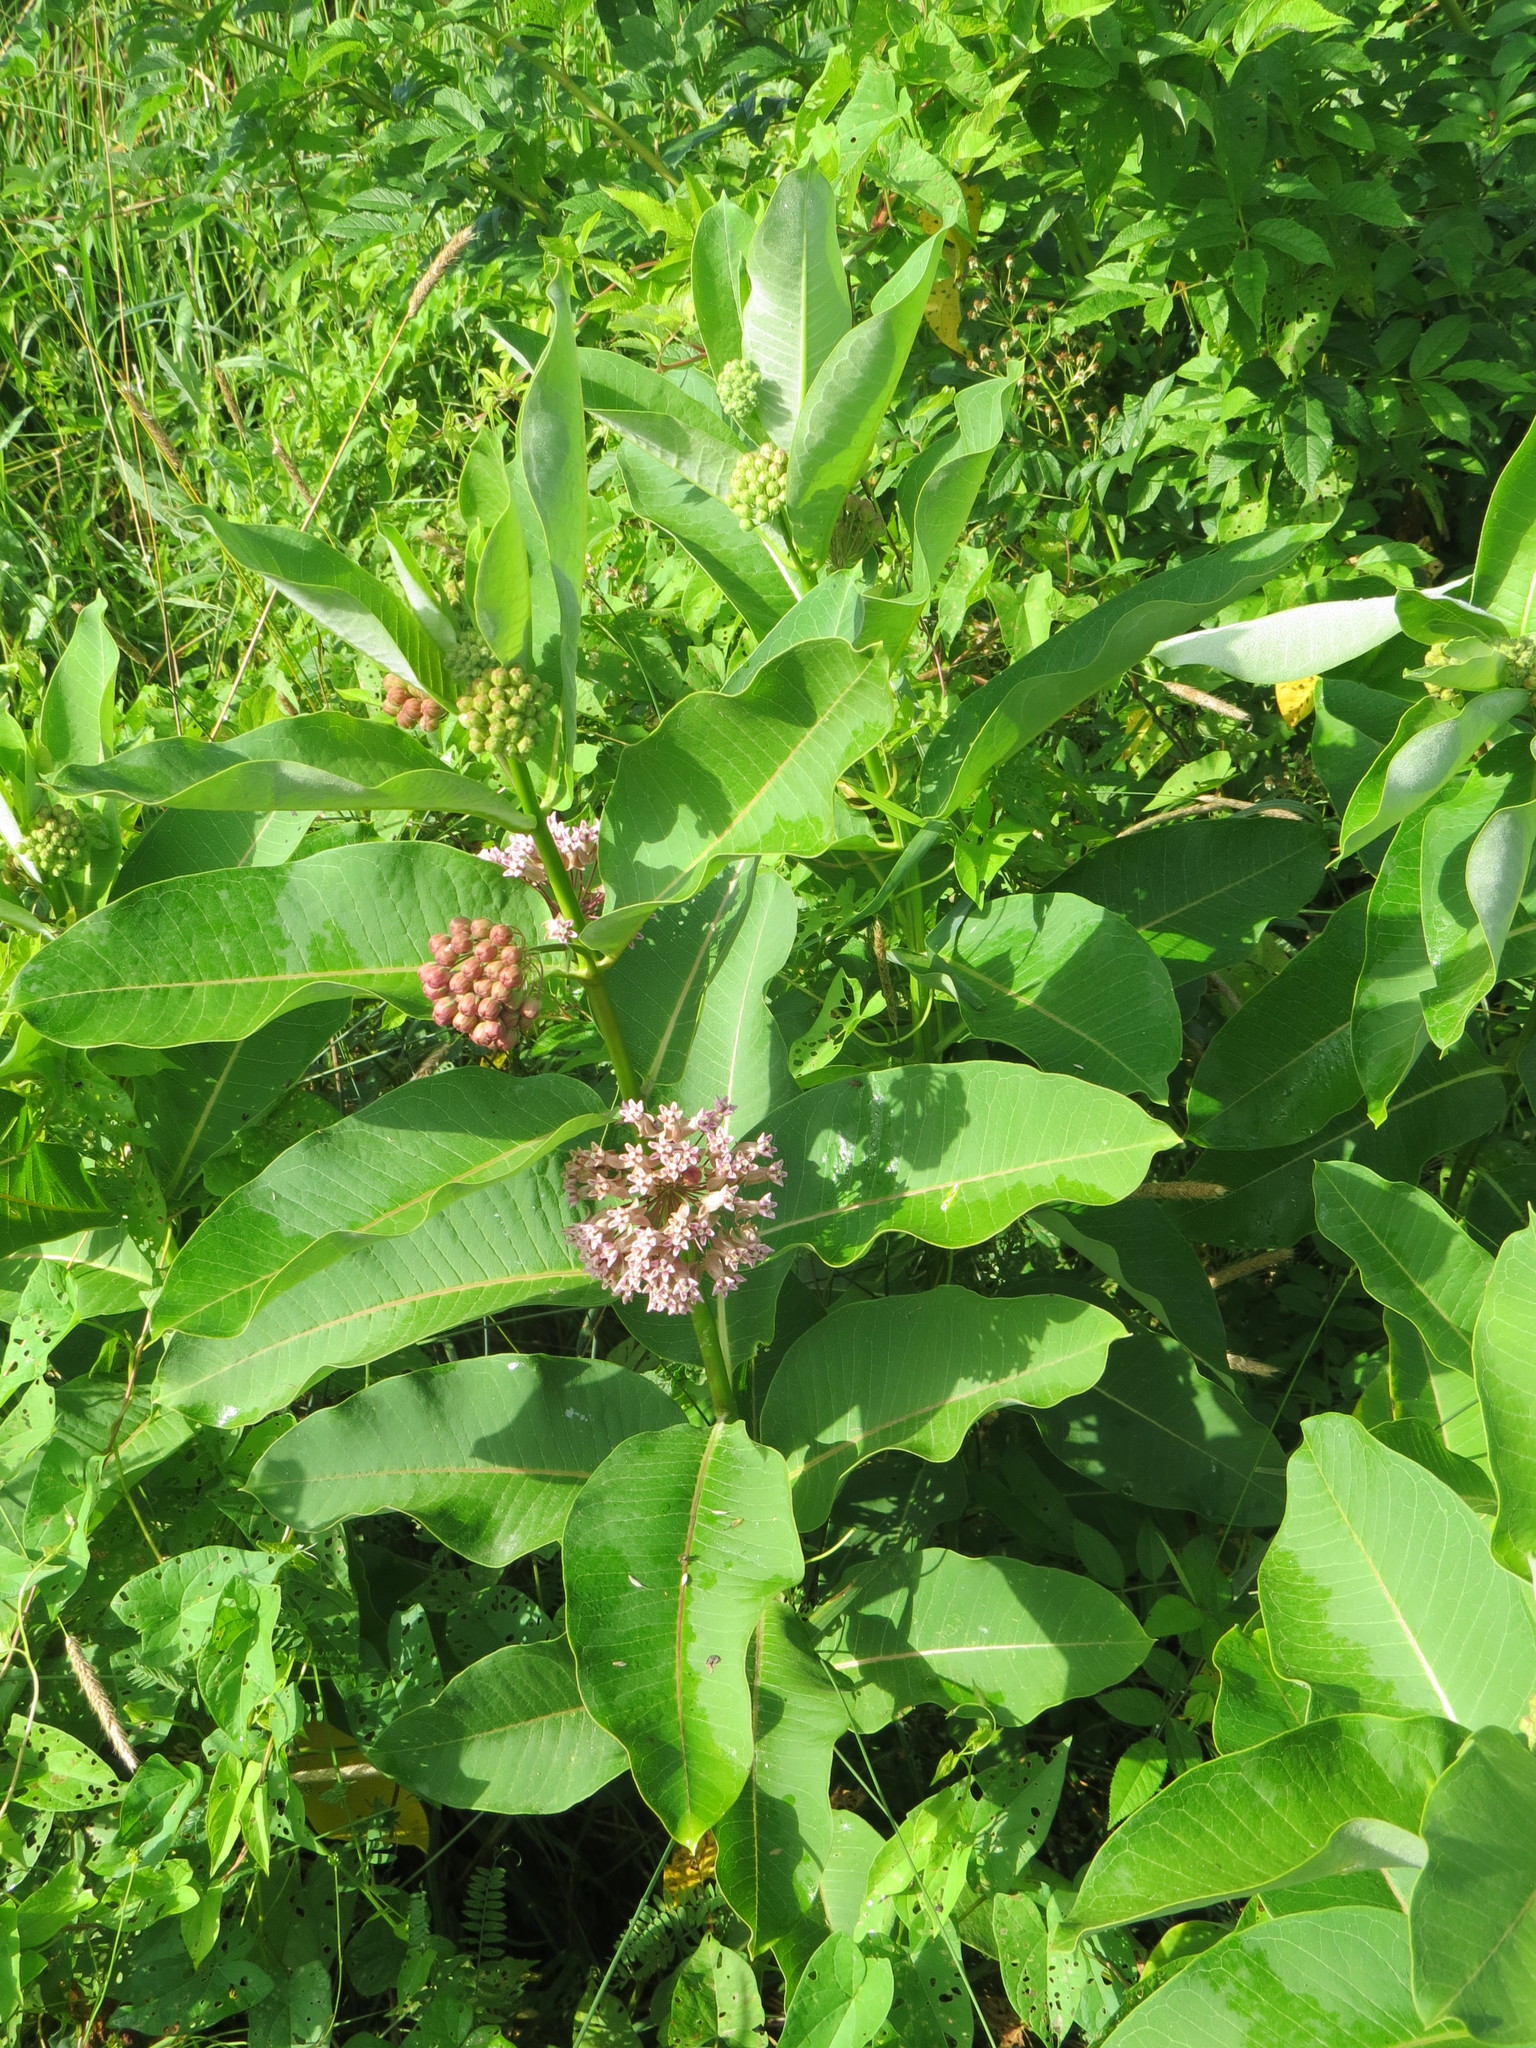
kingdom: Plantae
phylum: Tracheophyta
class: Magnoliopsida
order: Gentianales
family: Apocynaceae
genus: Asclepias
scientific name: Asclepias syriaca
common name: Common milkweed
